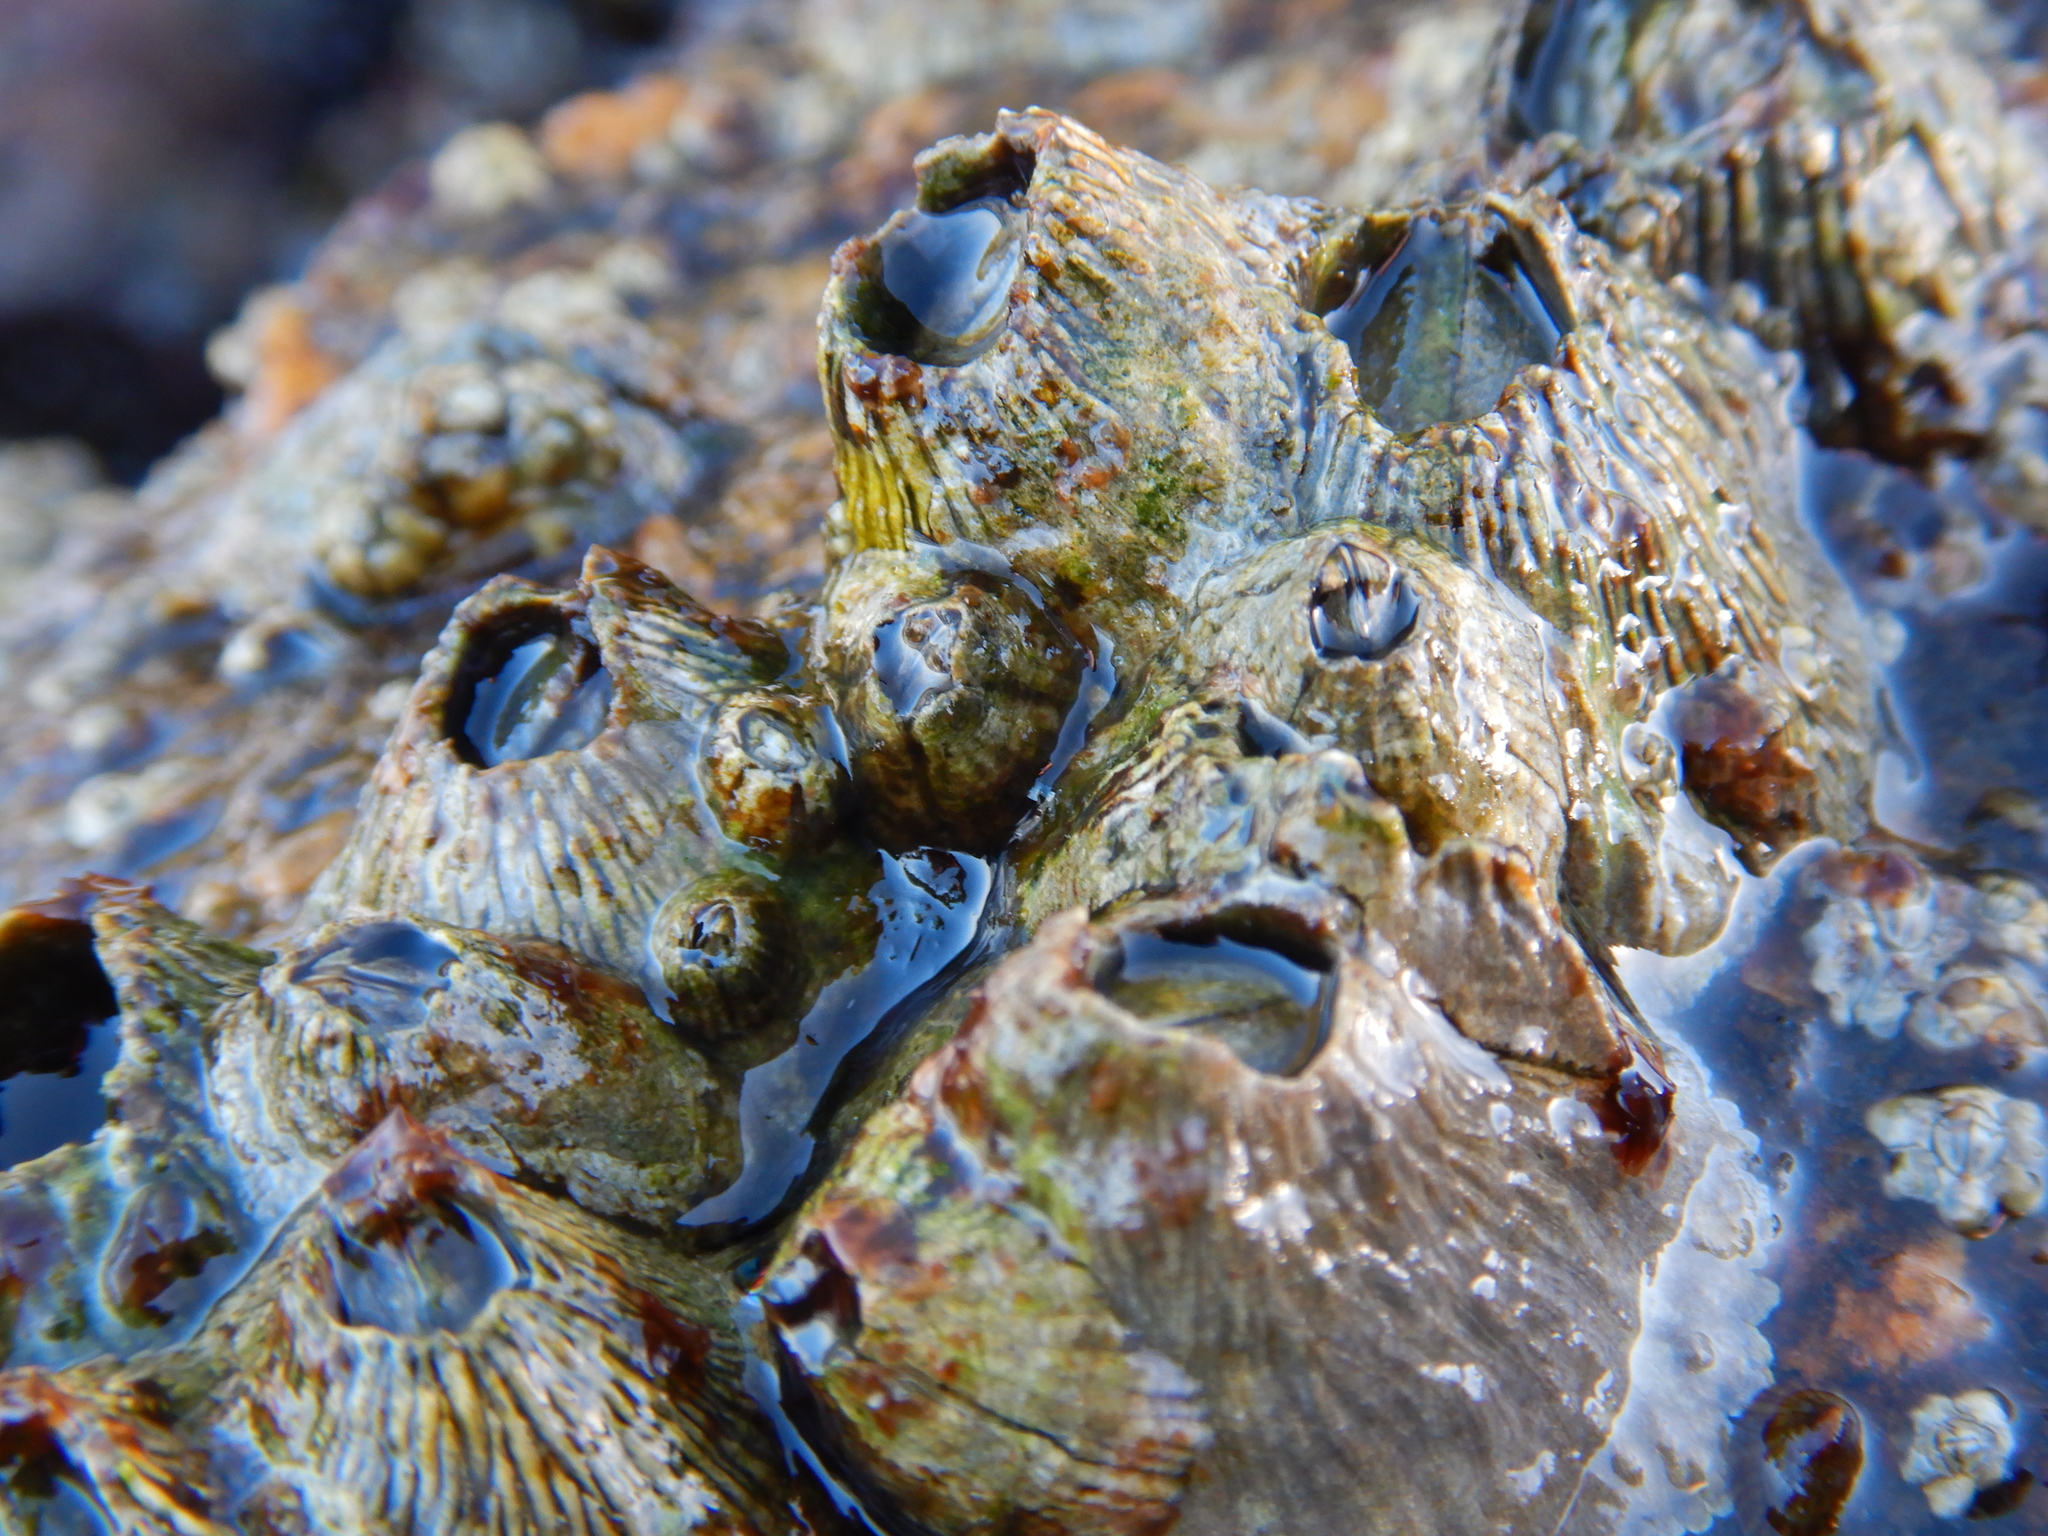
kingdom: Animalia
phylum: Arthropoda
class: Maxillopoda
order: Sessilia
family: Tetraclitidae
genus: Tetraclita
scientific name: Tetraclita stalactifera
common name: Ribbed barnacle
